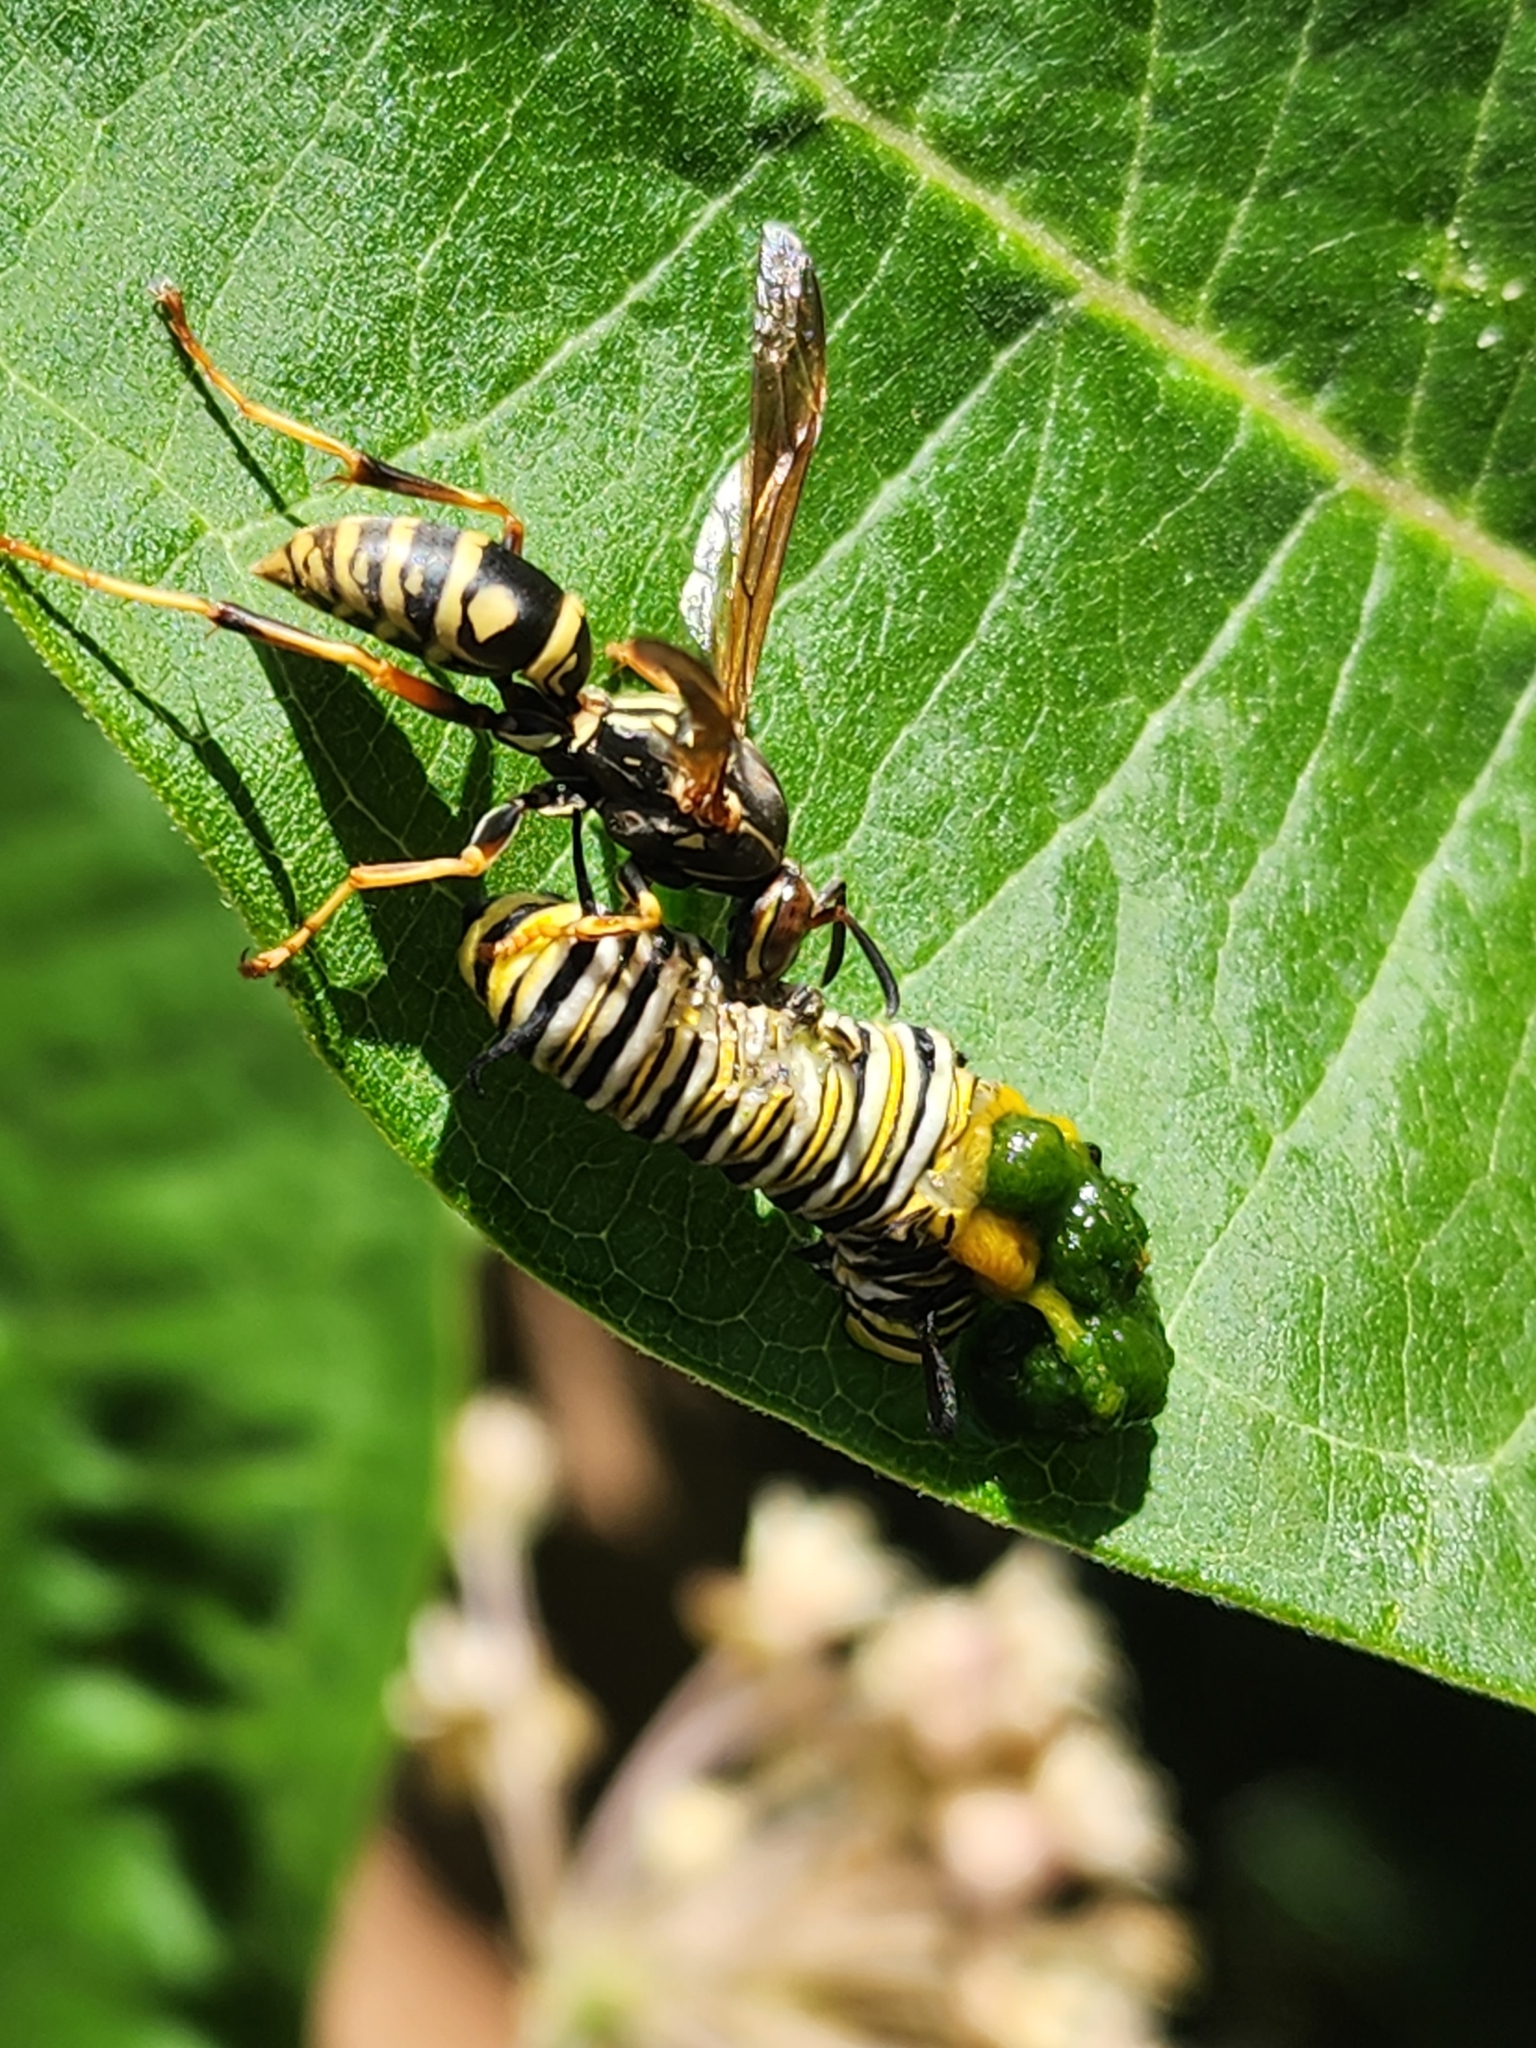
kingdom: Animalia
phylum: Arthropoda
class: Insecta
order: Hymenoptera
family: Eumenidae
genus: Polistes
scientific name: Polistes fuscatus
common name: Dark paper wasp
